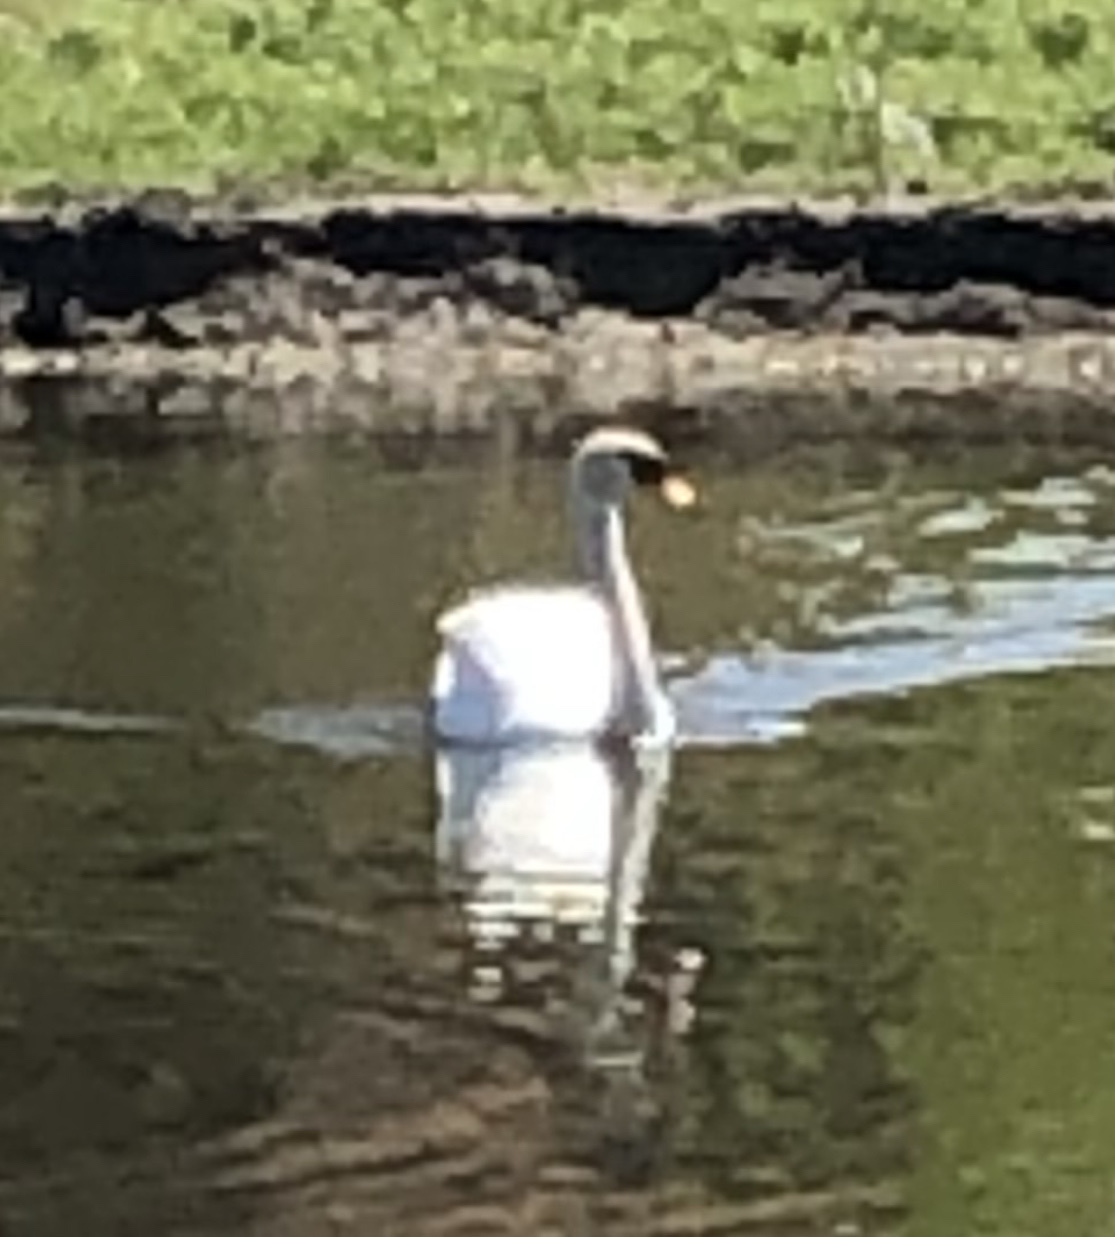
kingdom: Animalia
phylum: Chordata
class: Aves
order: Anseriformes
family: Anatidae
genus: Cygnus
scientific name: Cygnus olor
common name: Mute swan
